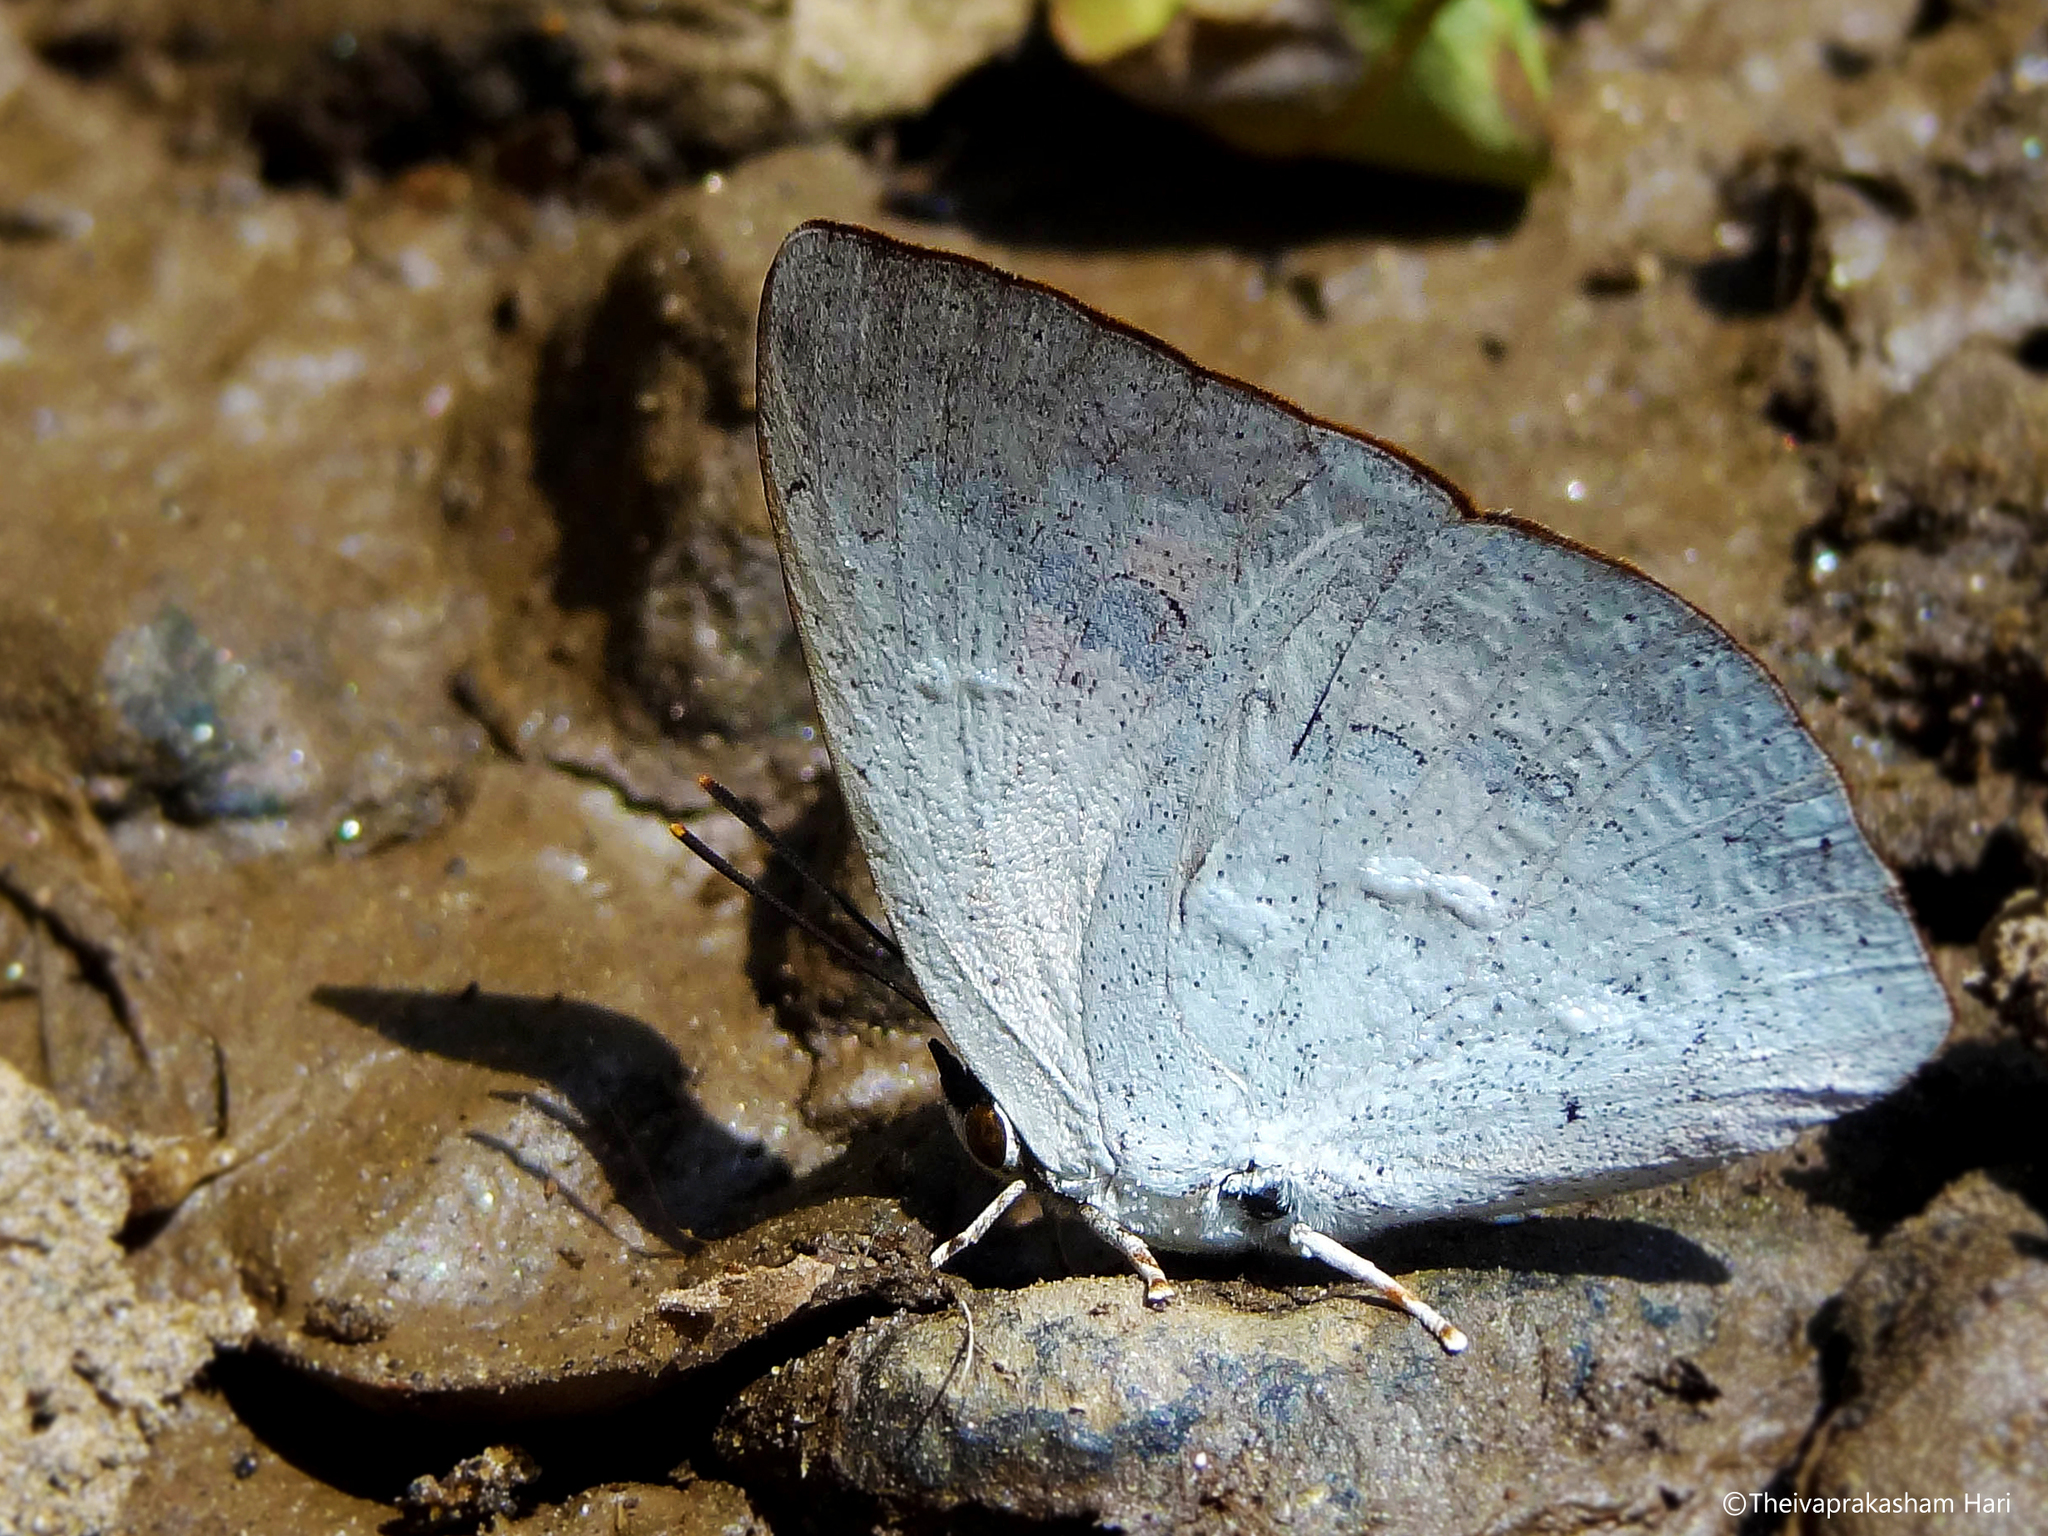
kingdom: Animalia
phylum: Arthropoda
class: Insecta
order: Lepidoptera
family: Lycaenidae
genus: Curetis
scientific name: Curetis siva
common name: Shiva sunbeam
